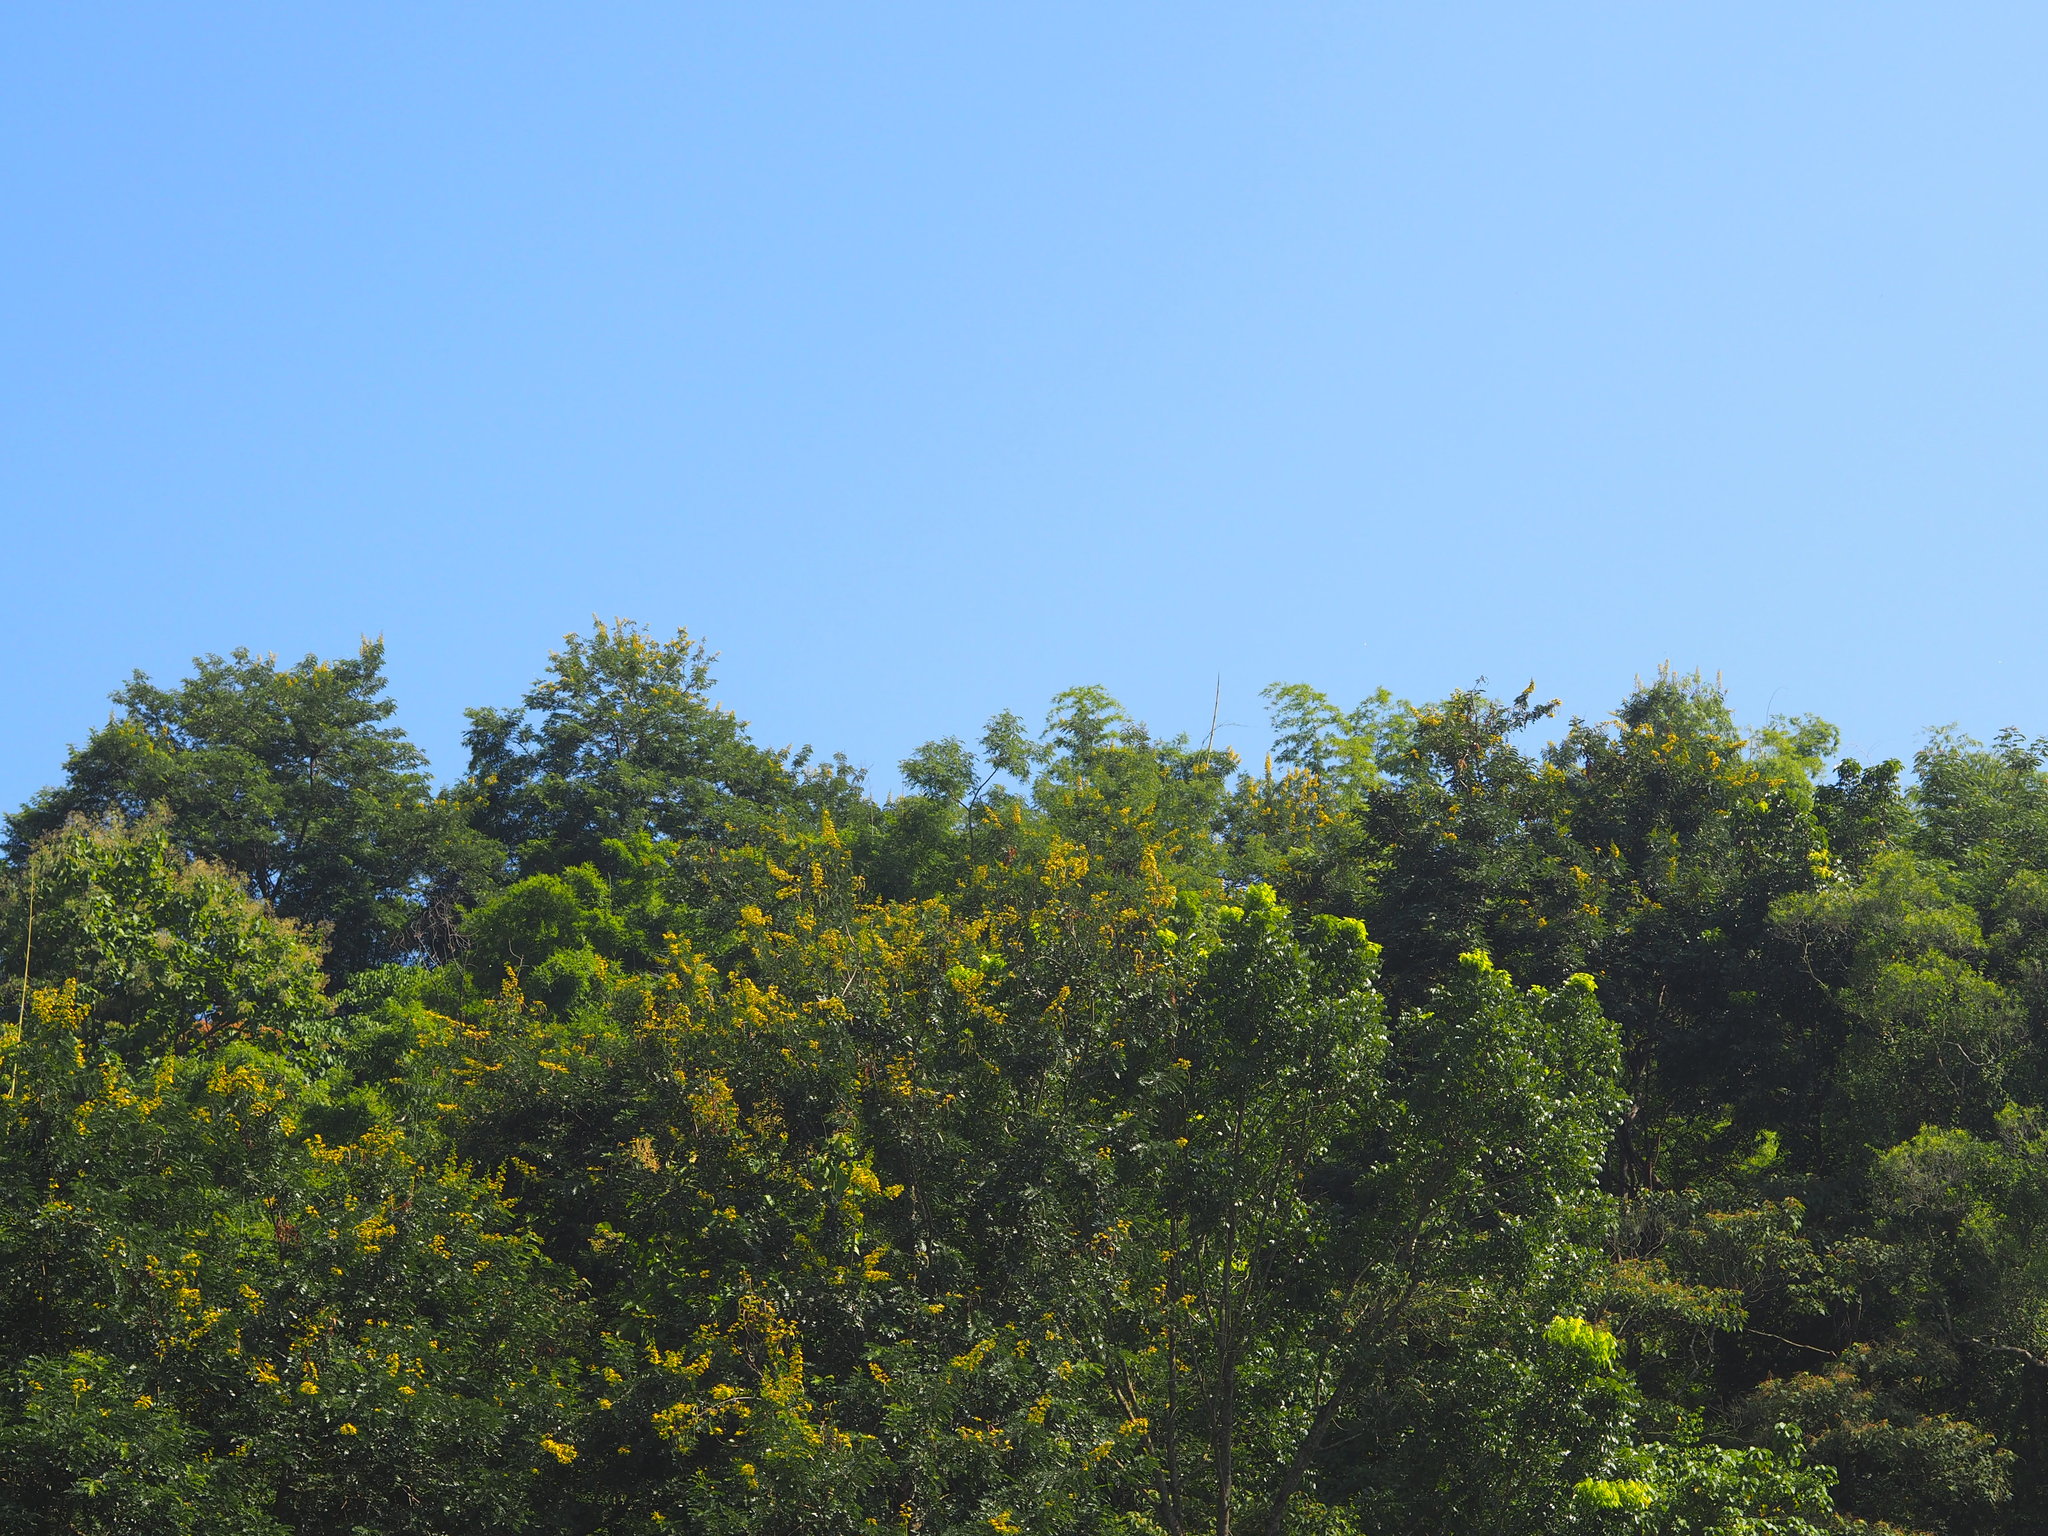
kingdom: Plantae
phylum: Tracheophyta
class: Magnoliopsida
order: Fabales
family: Fabaceae
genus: Senna
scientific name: Senna siamea
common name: Siamese cassia
